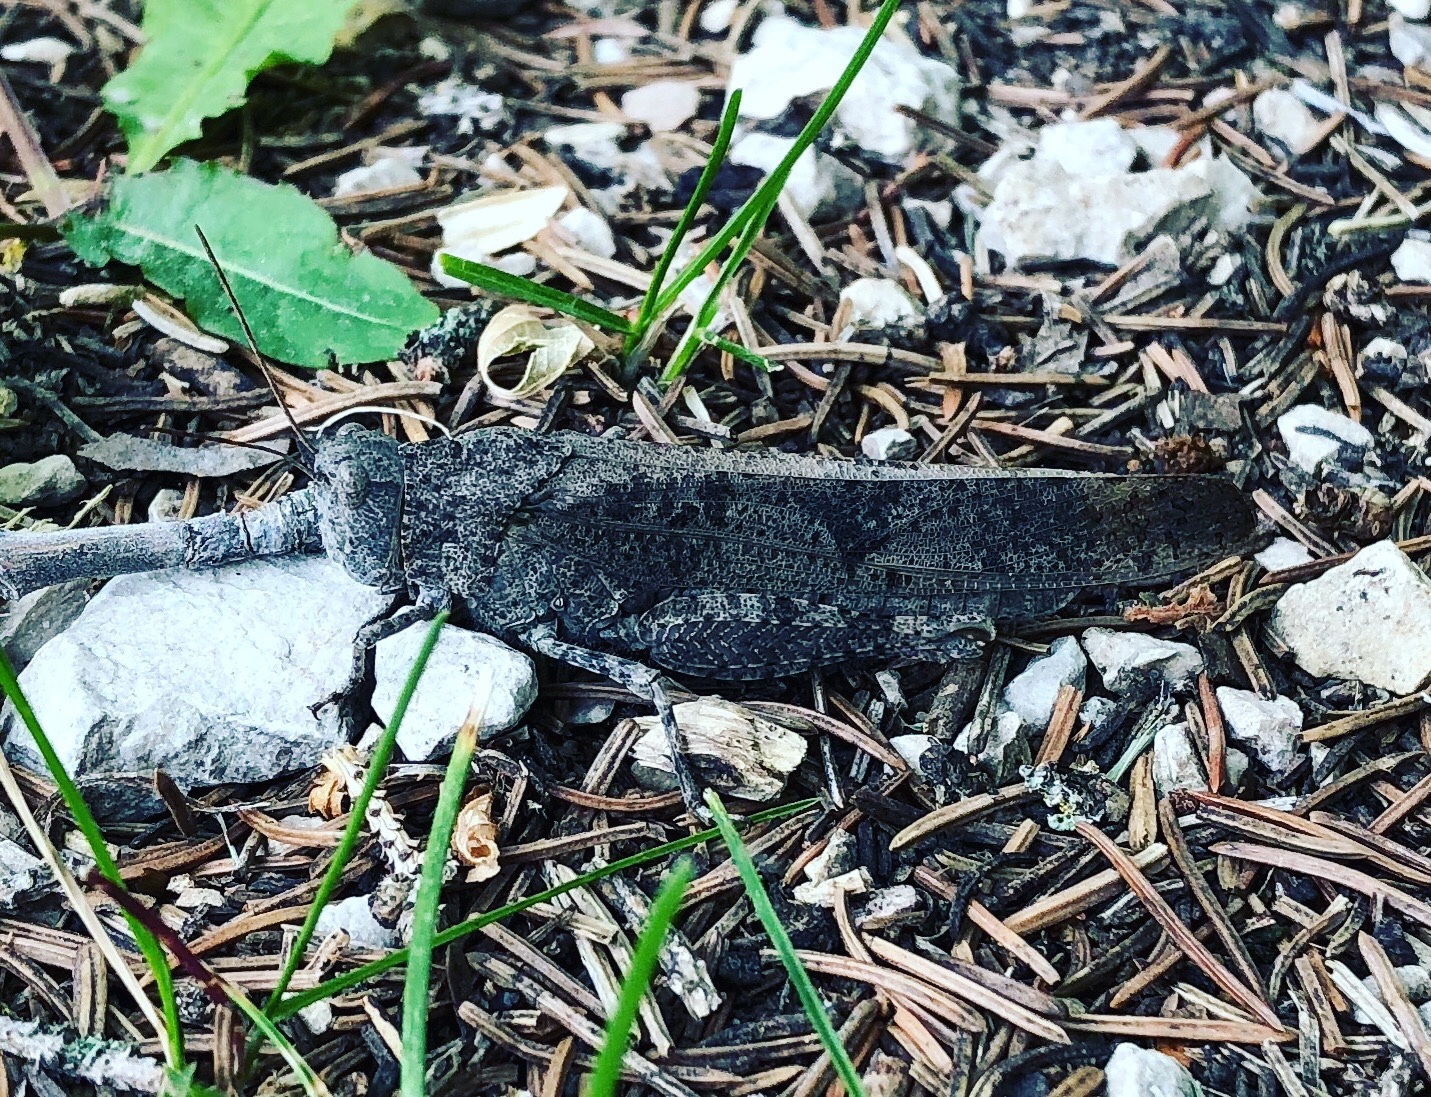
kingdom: Animalia
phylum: Arthropoda
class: Insecta
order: Orthoptera
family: Acrididae
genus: Dissosteira
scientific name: Dissosteira carolina
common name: Carolina grasshopper
